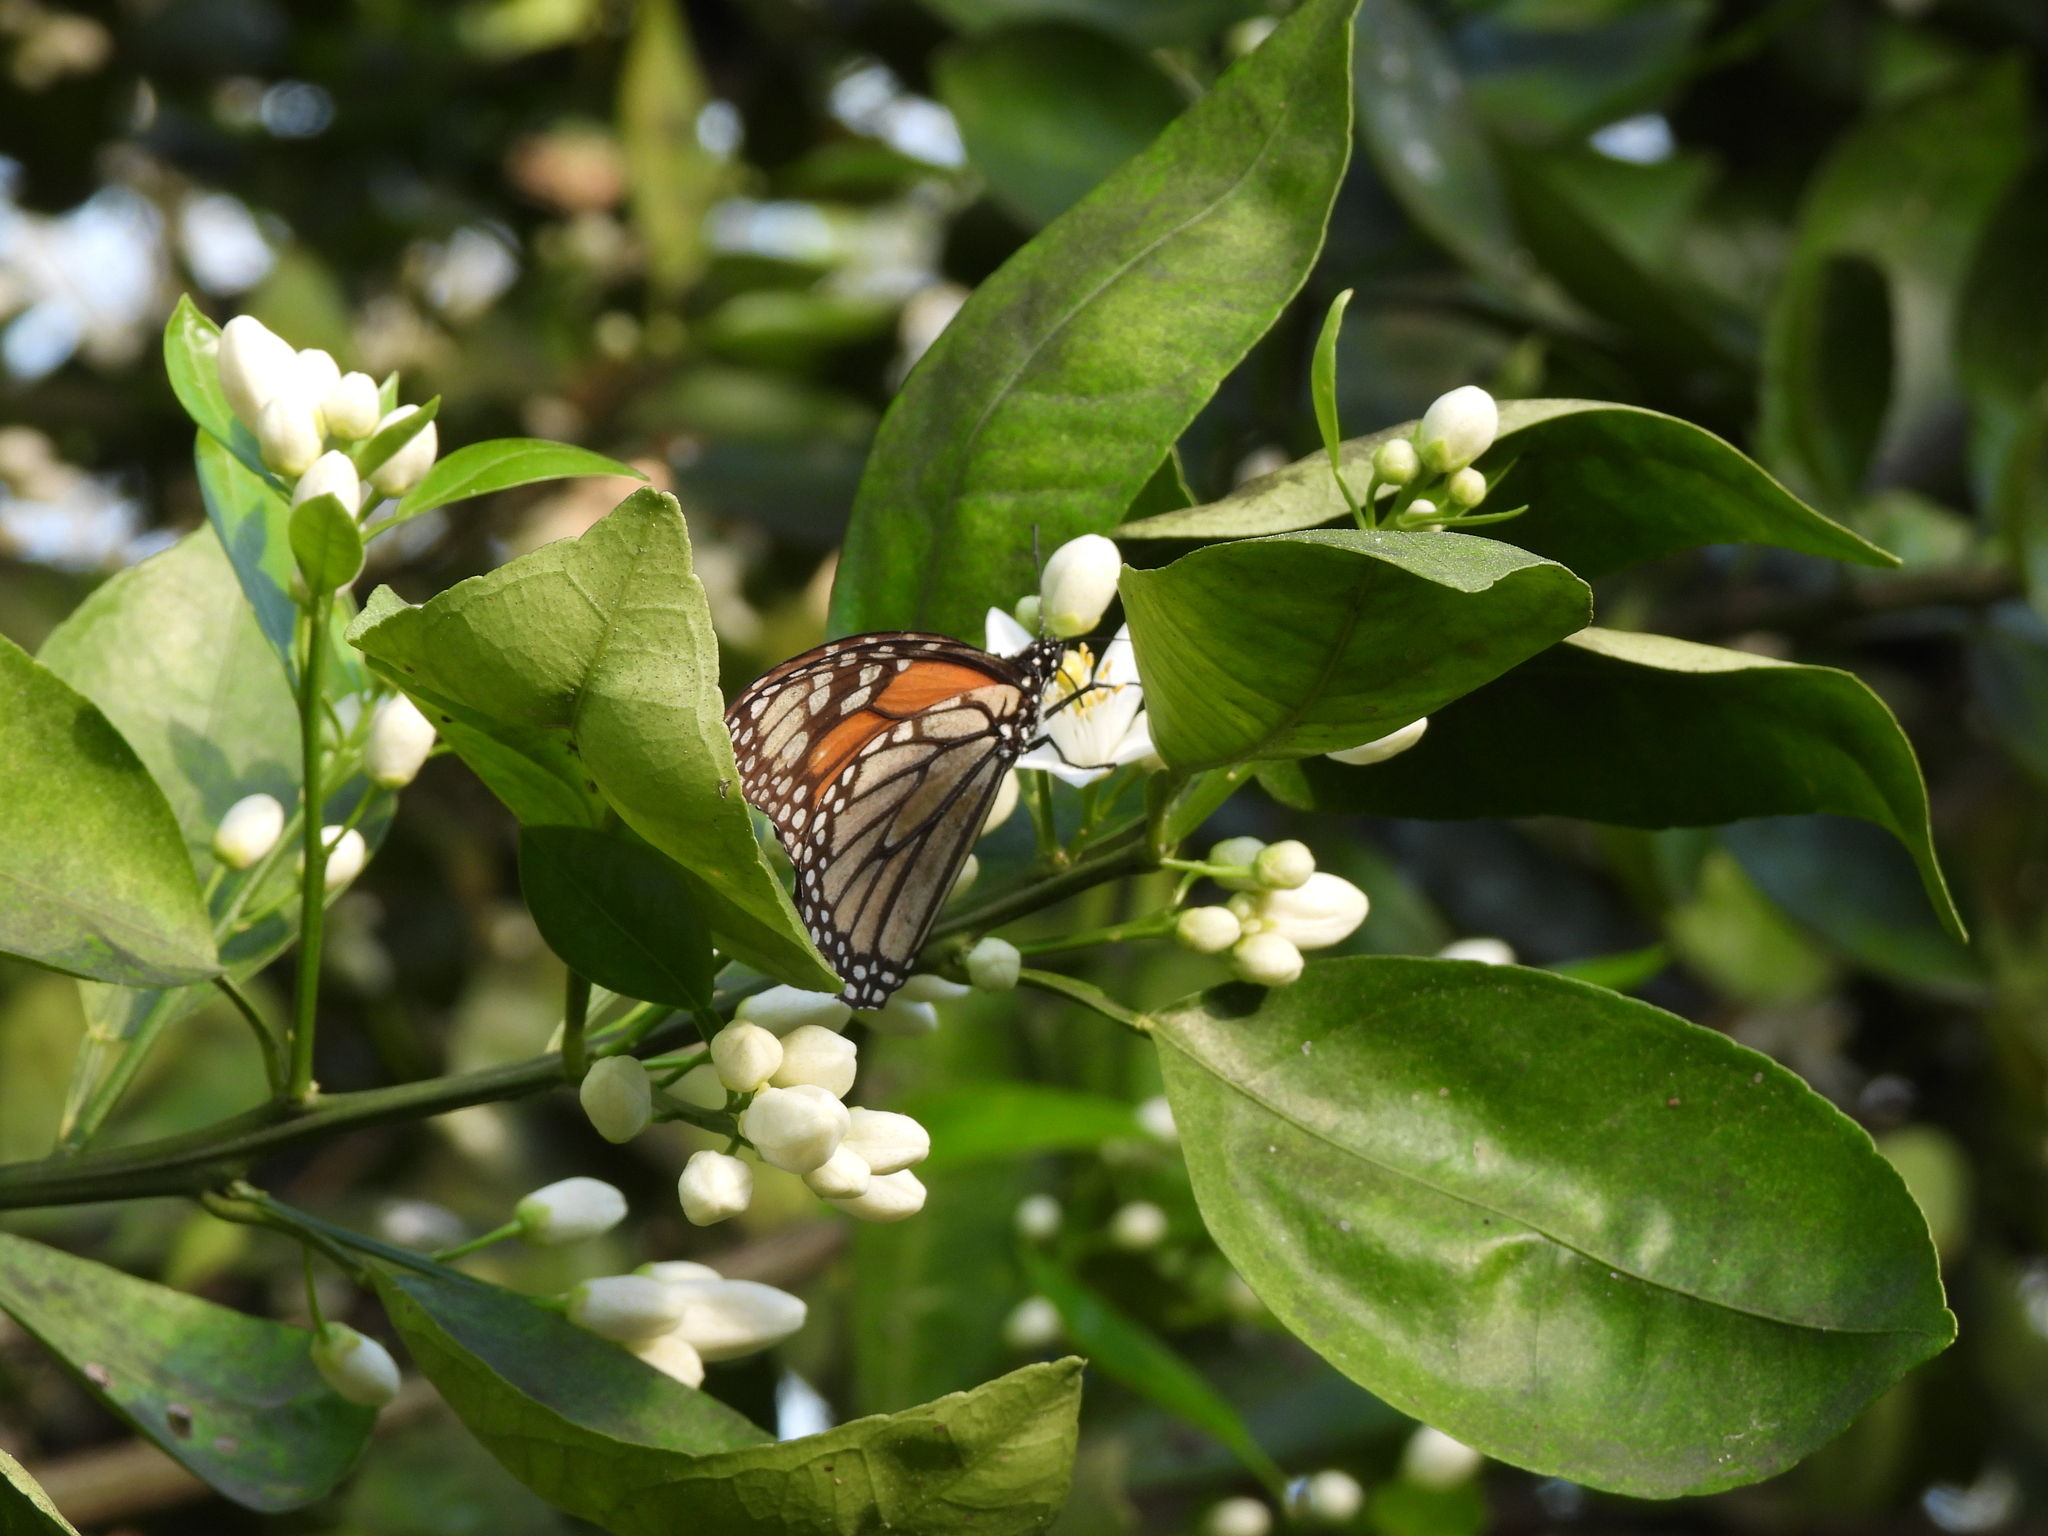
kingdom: Animalia
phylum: Arthropoda
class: Insecta
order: Lepidoptera
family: Nymphalidae
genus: Danaus
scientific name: Danaus plexippus
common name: Monarch
